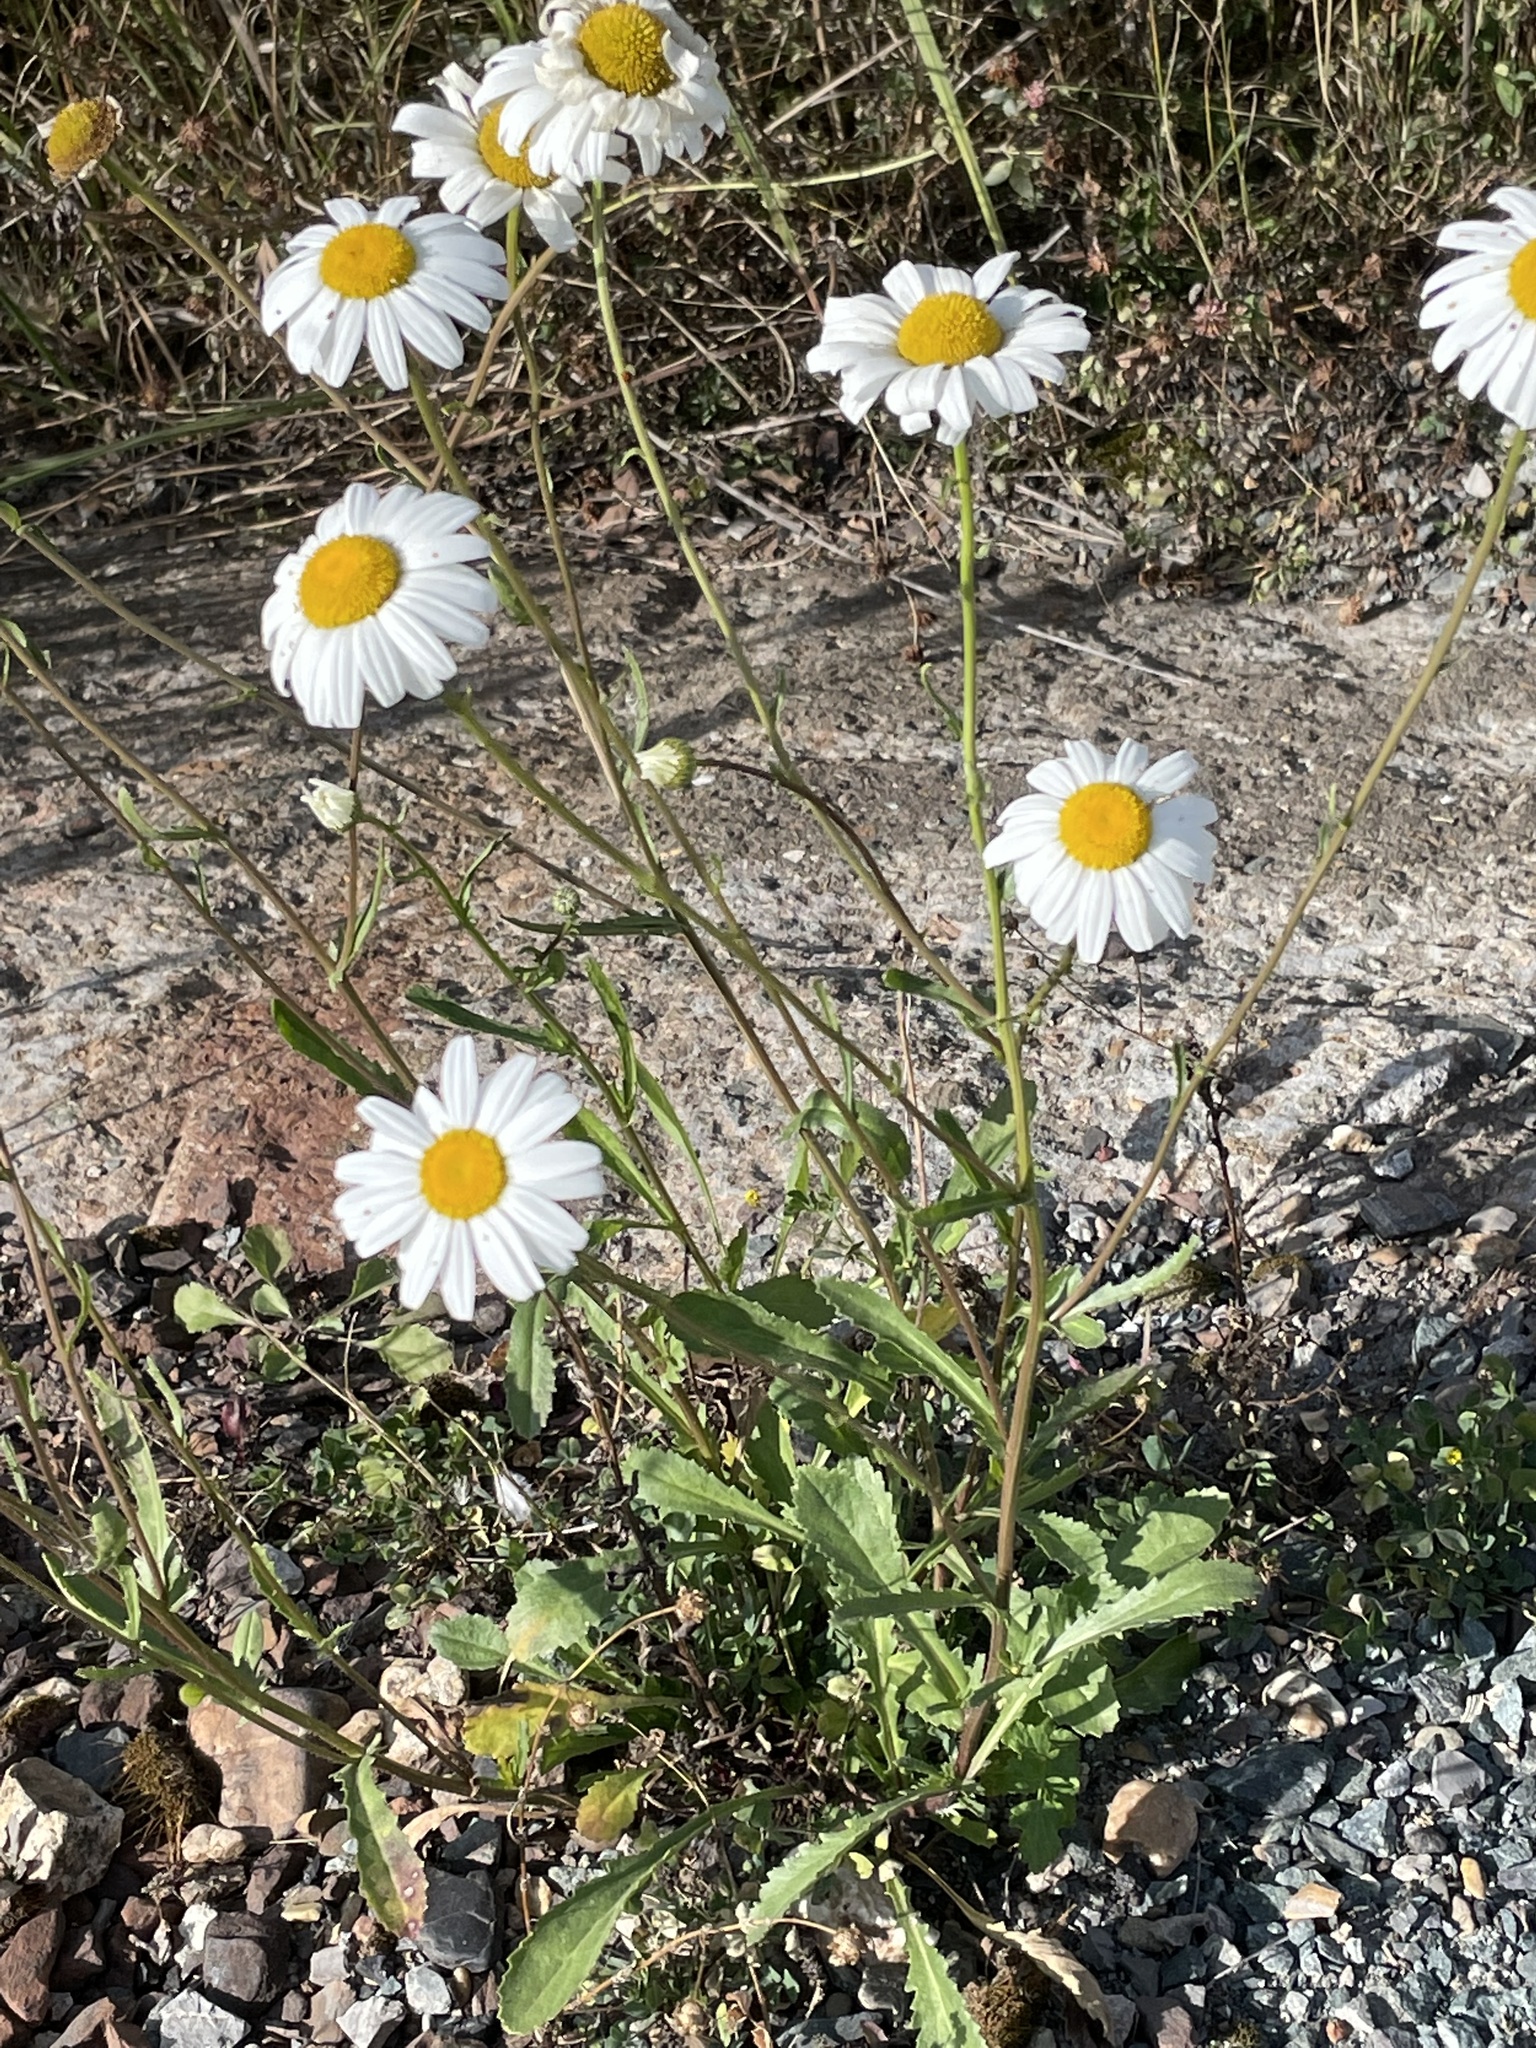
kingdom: Plantae
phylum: Tracheophyta
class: Magnoliopsida
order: Asterales
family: Asteraceae
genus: Leucanthemum
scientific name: Leucanthemum vulgare
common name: Oxeye daisy
